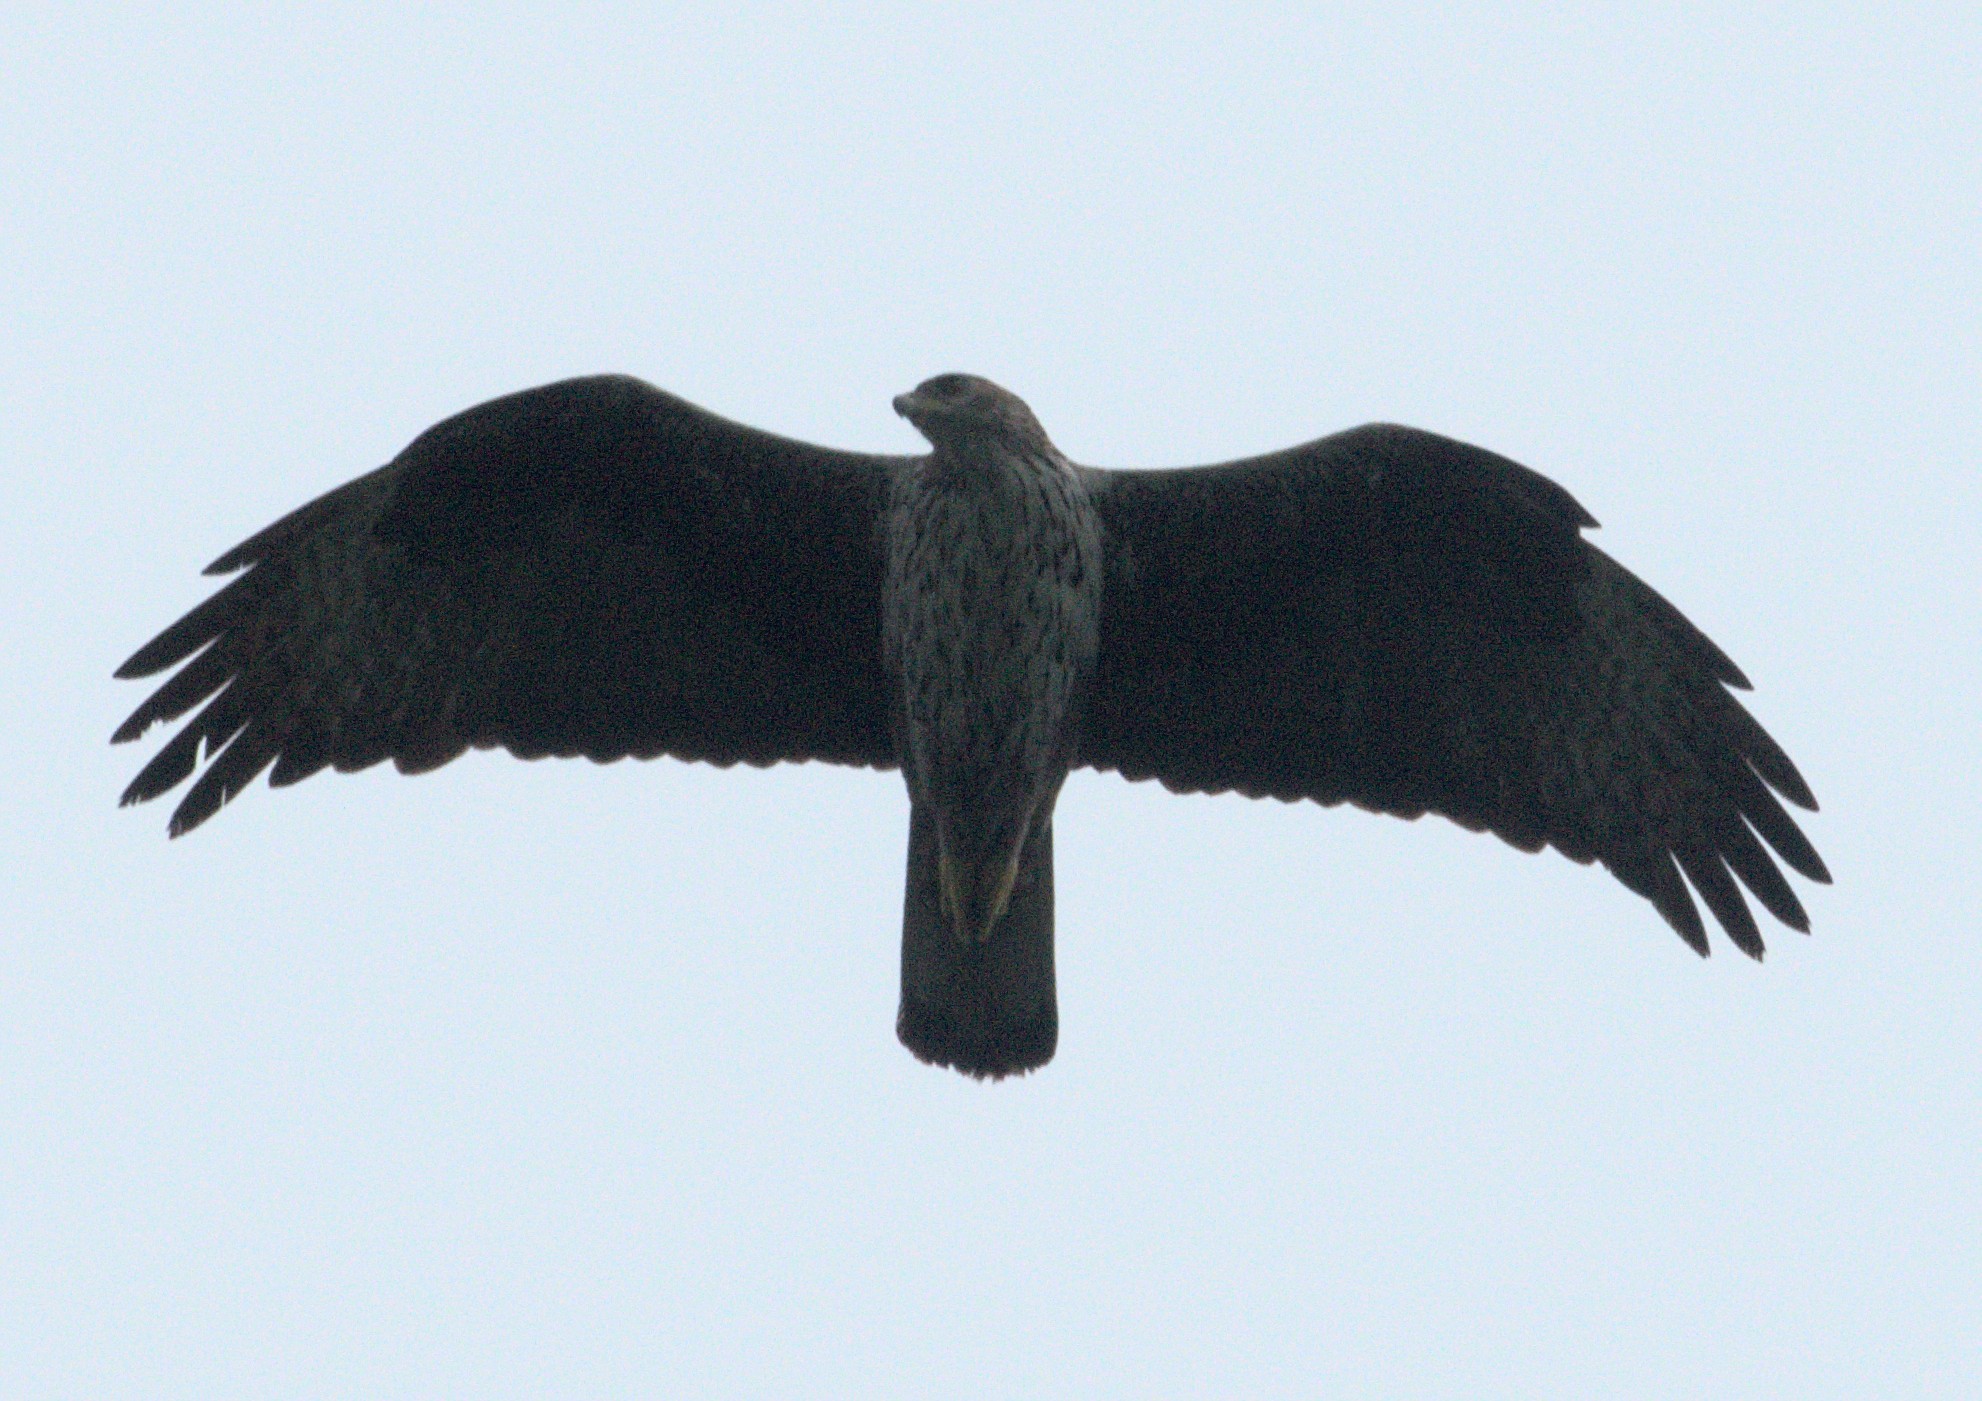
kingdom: Animalia
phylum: Chordata
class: Aves
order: Accipitriformes
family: Accipitridae
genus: Aquila
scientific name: Aquila fasciata
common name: Bonelli's eagle
